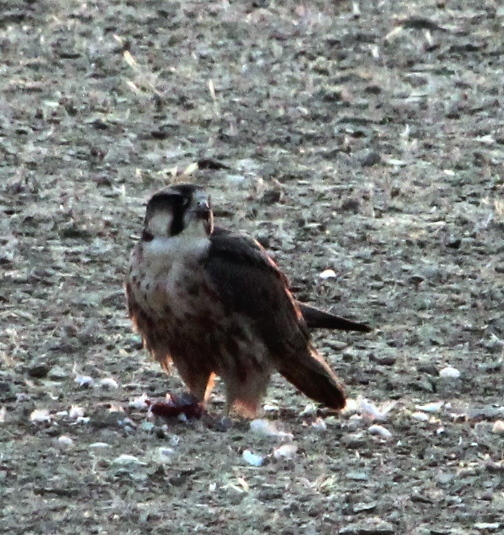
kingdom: Animalia
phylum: Chordata
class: Aves
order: Falconiformes
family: Falconidae
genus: Falco
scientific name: Falco biarmicus
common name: Lanner falcon
